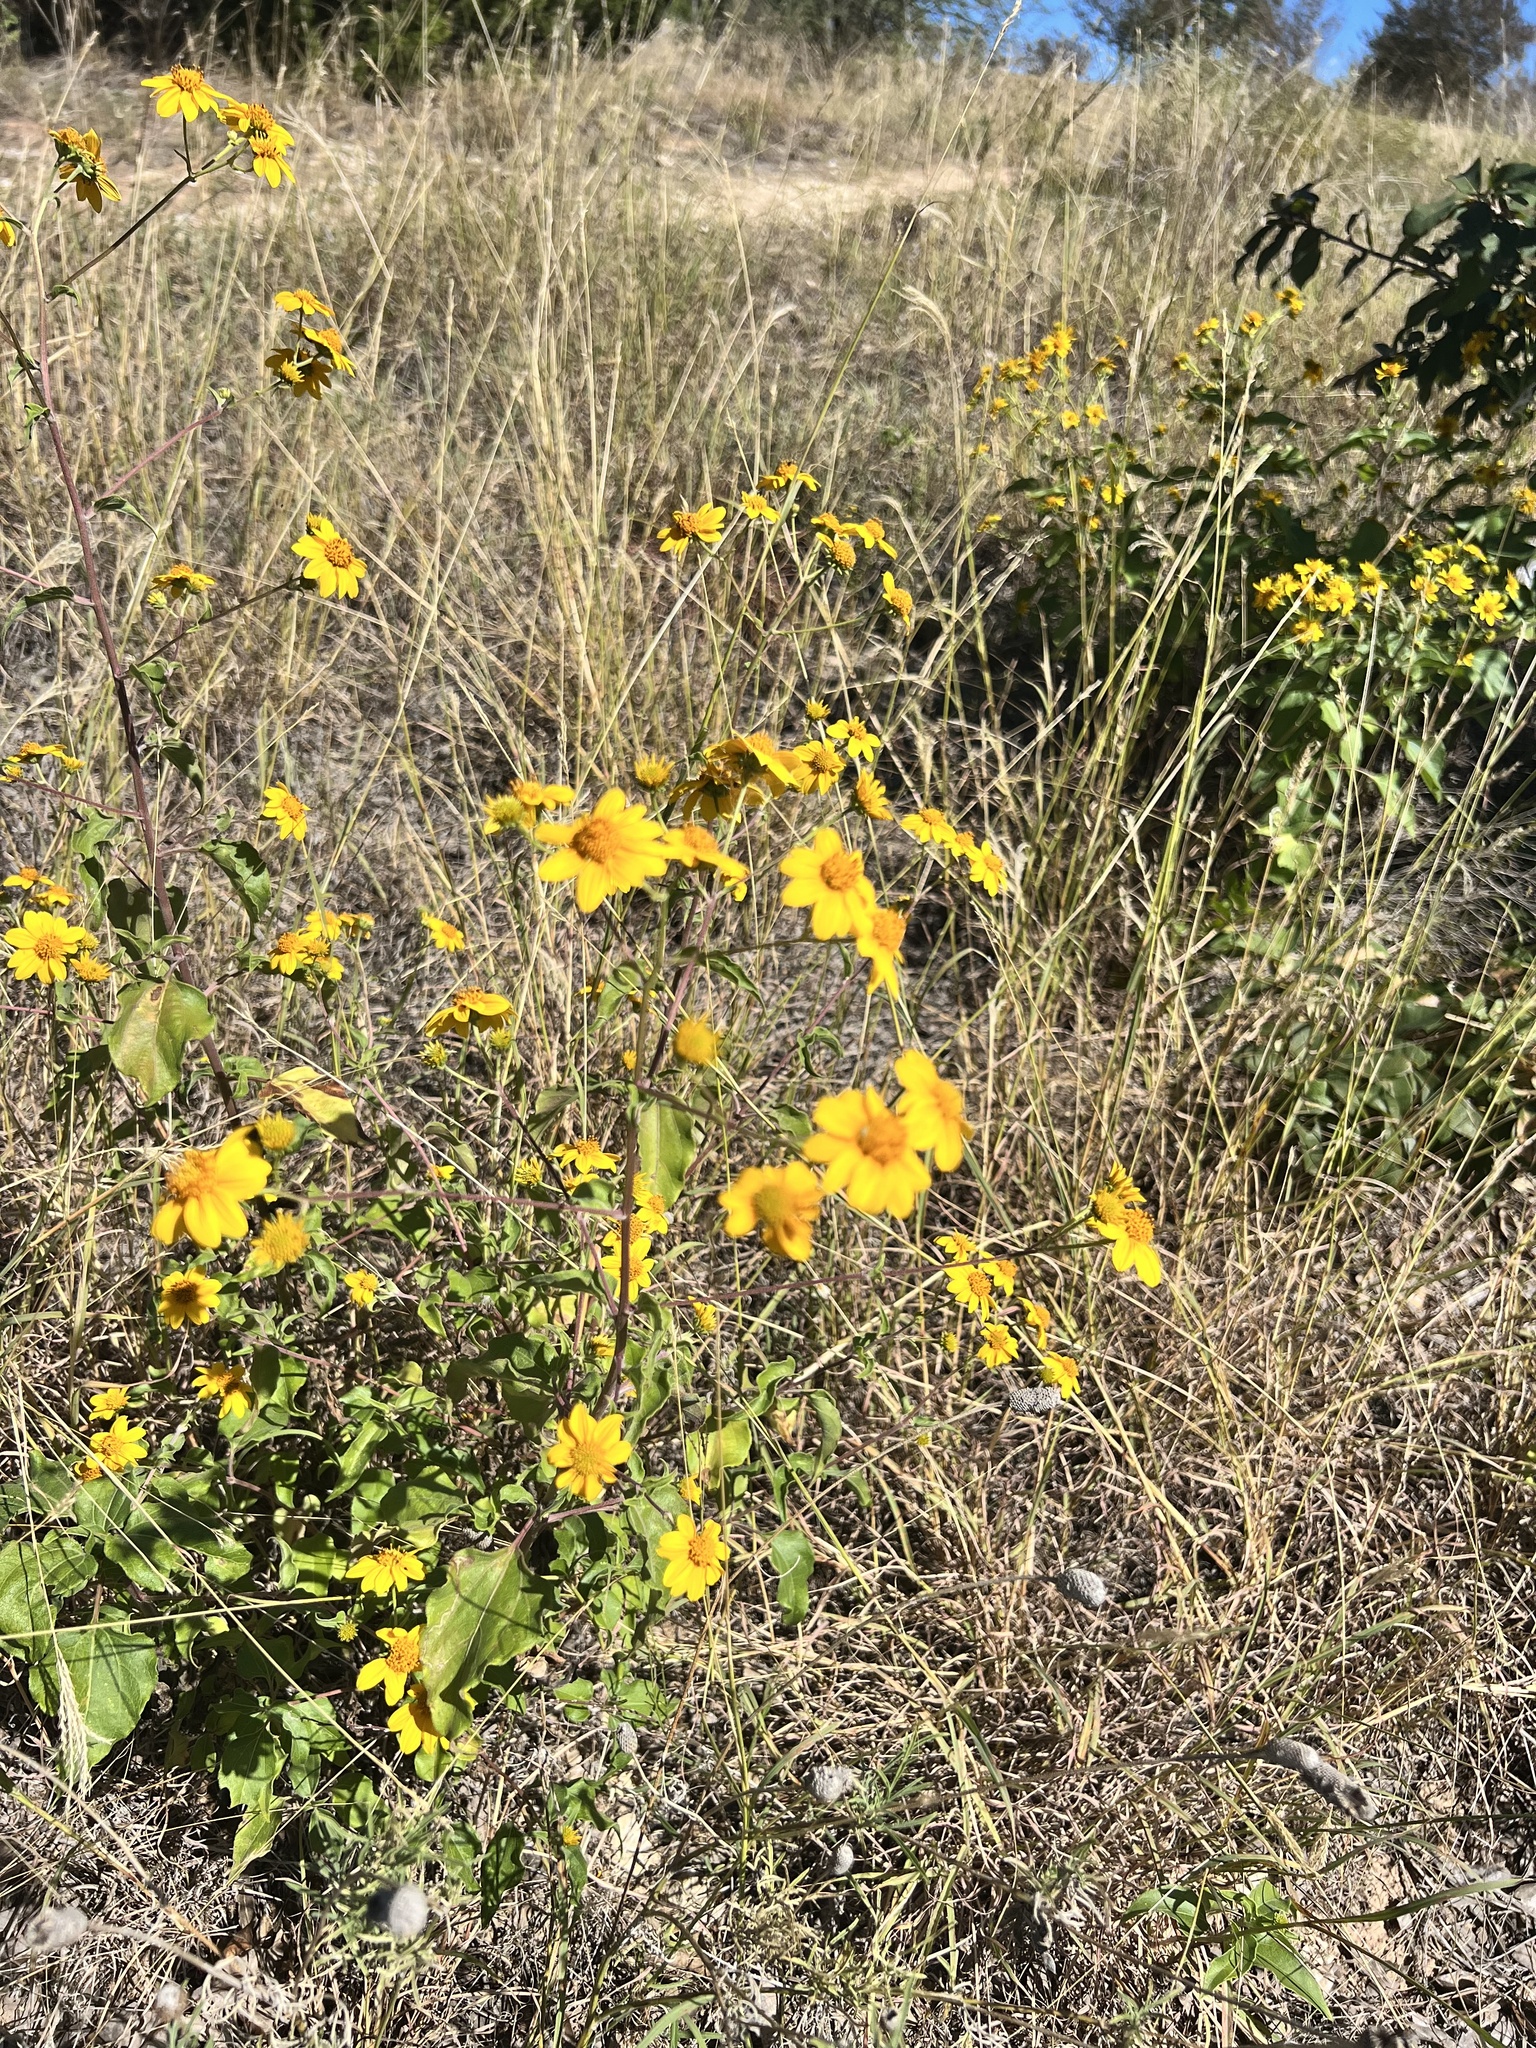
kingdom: Plantae
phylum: Tracheophyta
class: Magnoliopsida
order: Asterales
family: Asteraceae
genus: Viguiera
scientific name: Viguiera dentata
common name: Toothleaf
